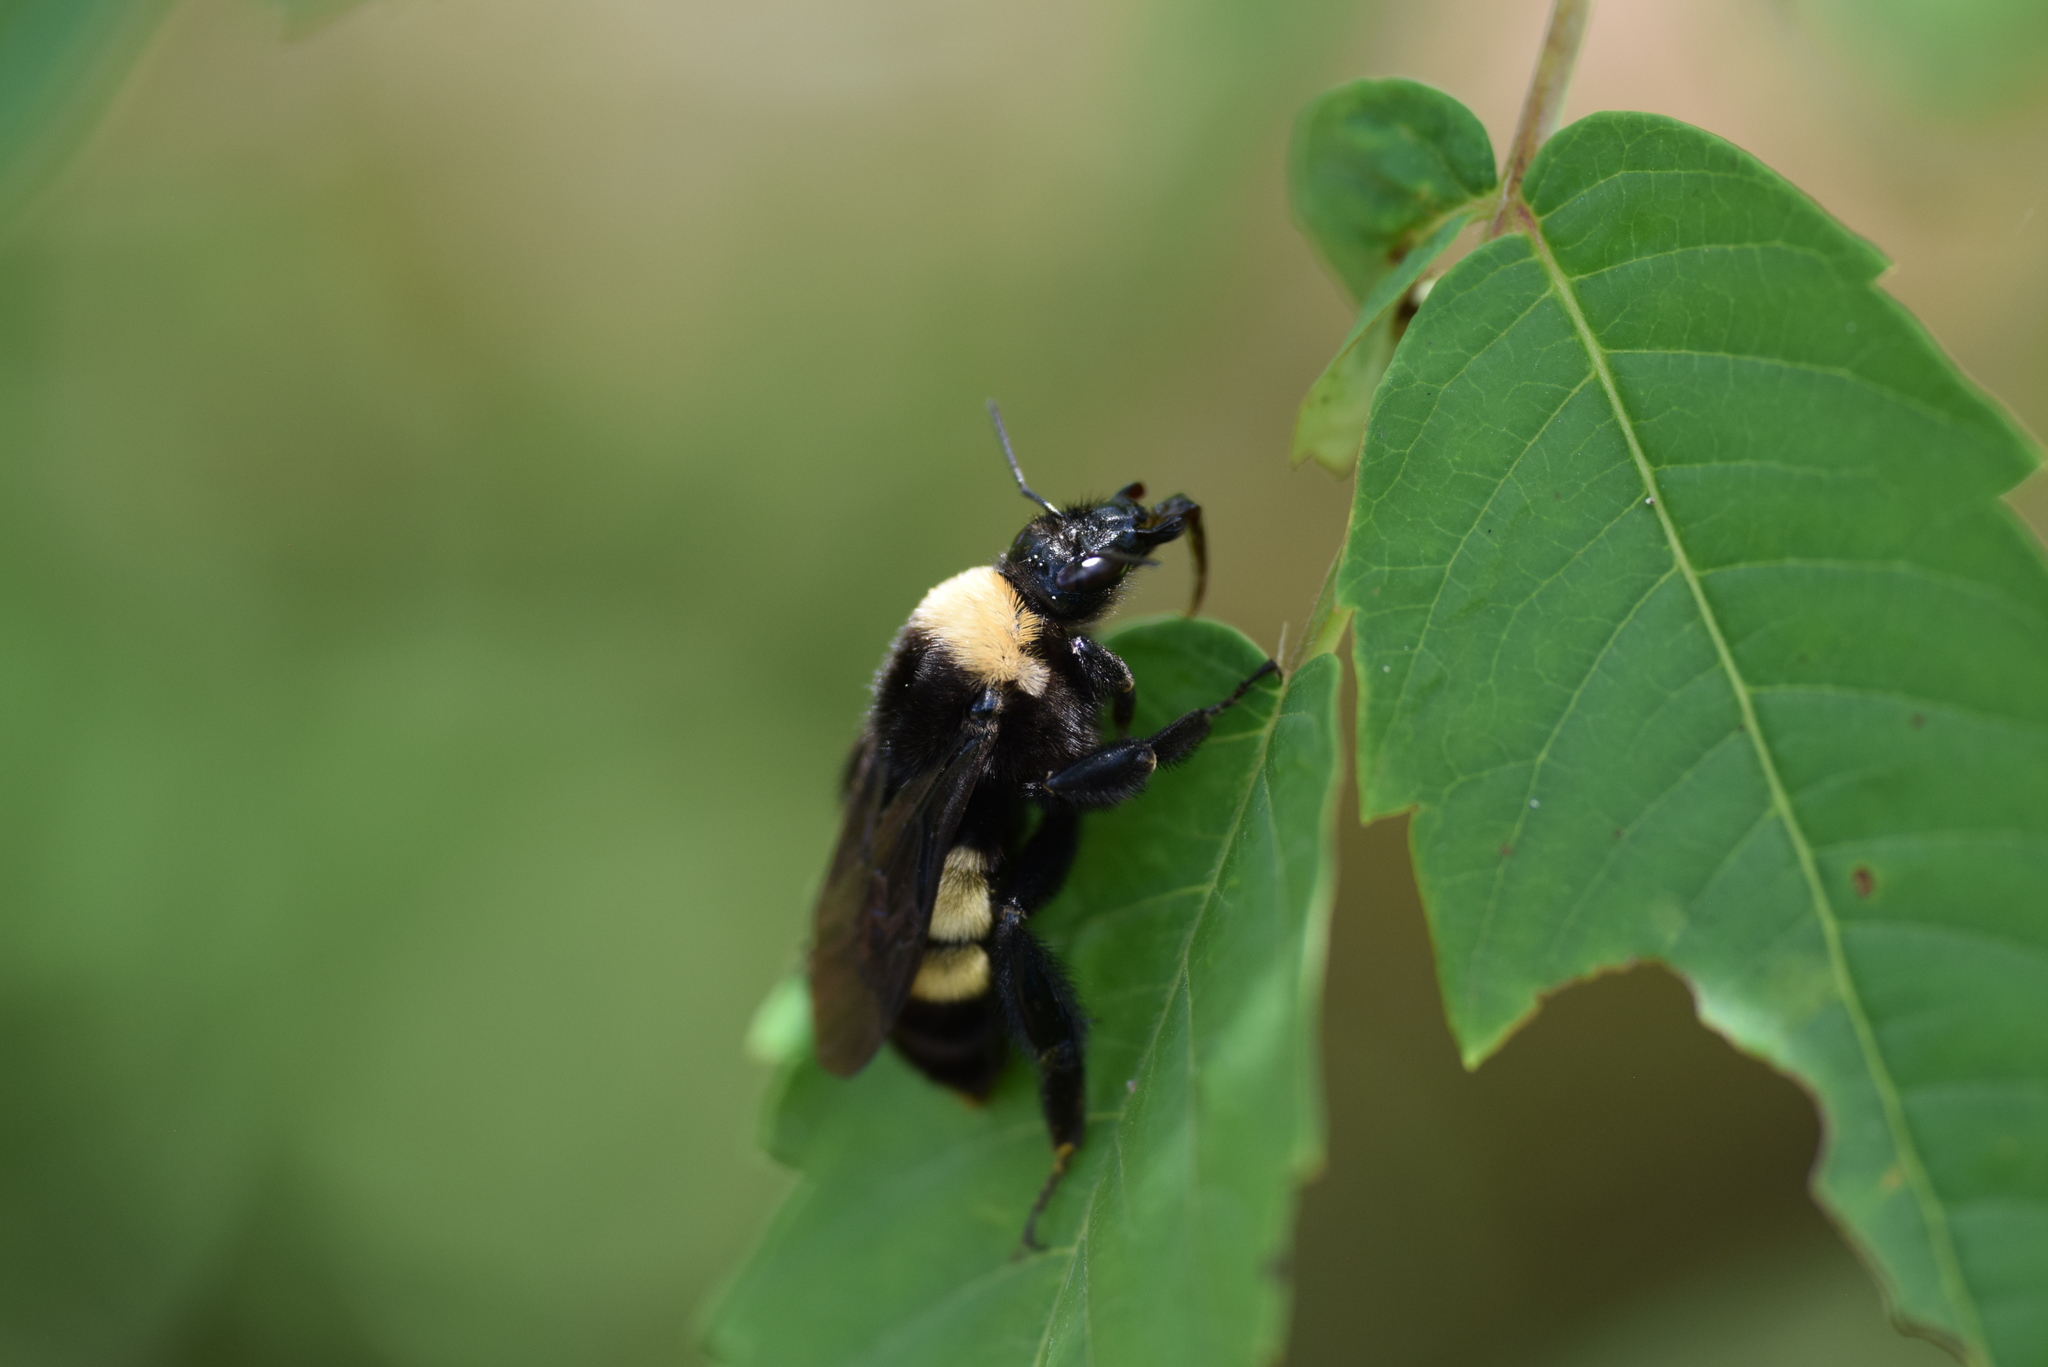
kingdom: Animalia
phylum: Arthropoda
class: Insecta
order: Hymenoptera
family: Apidae
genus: Bombus
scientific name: Bombus pensylvanicus
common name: Bumble bee
